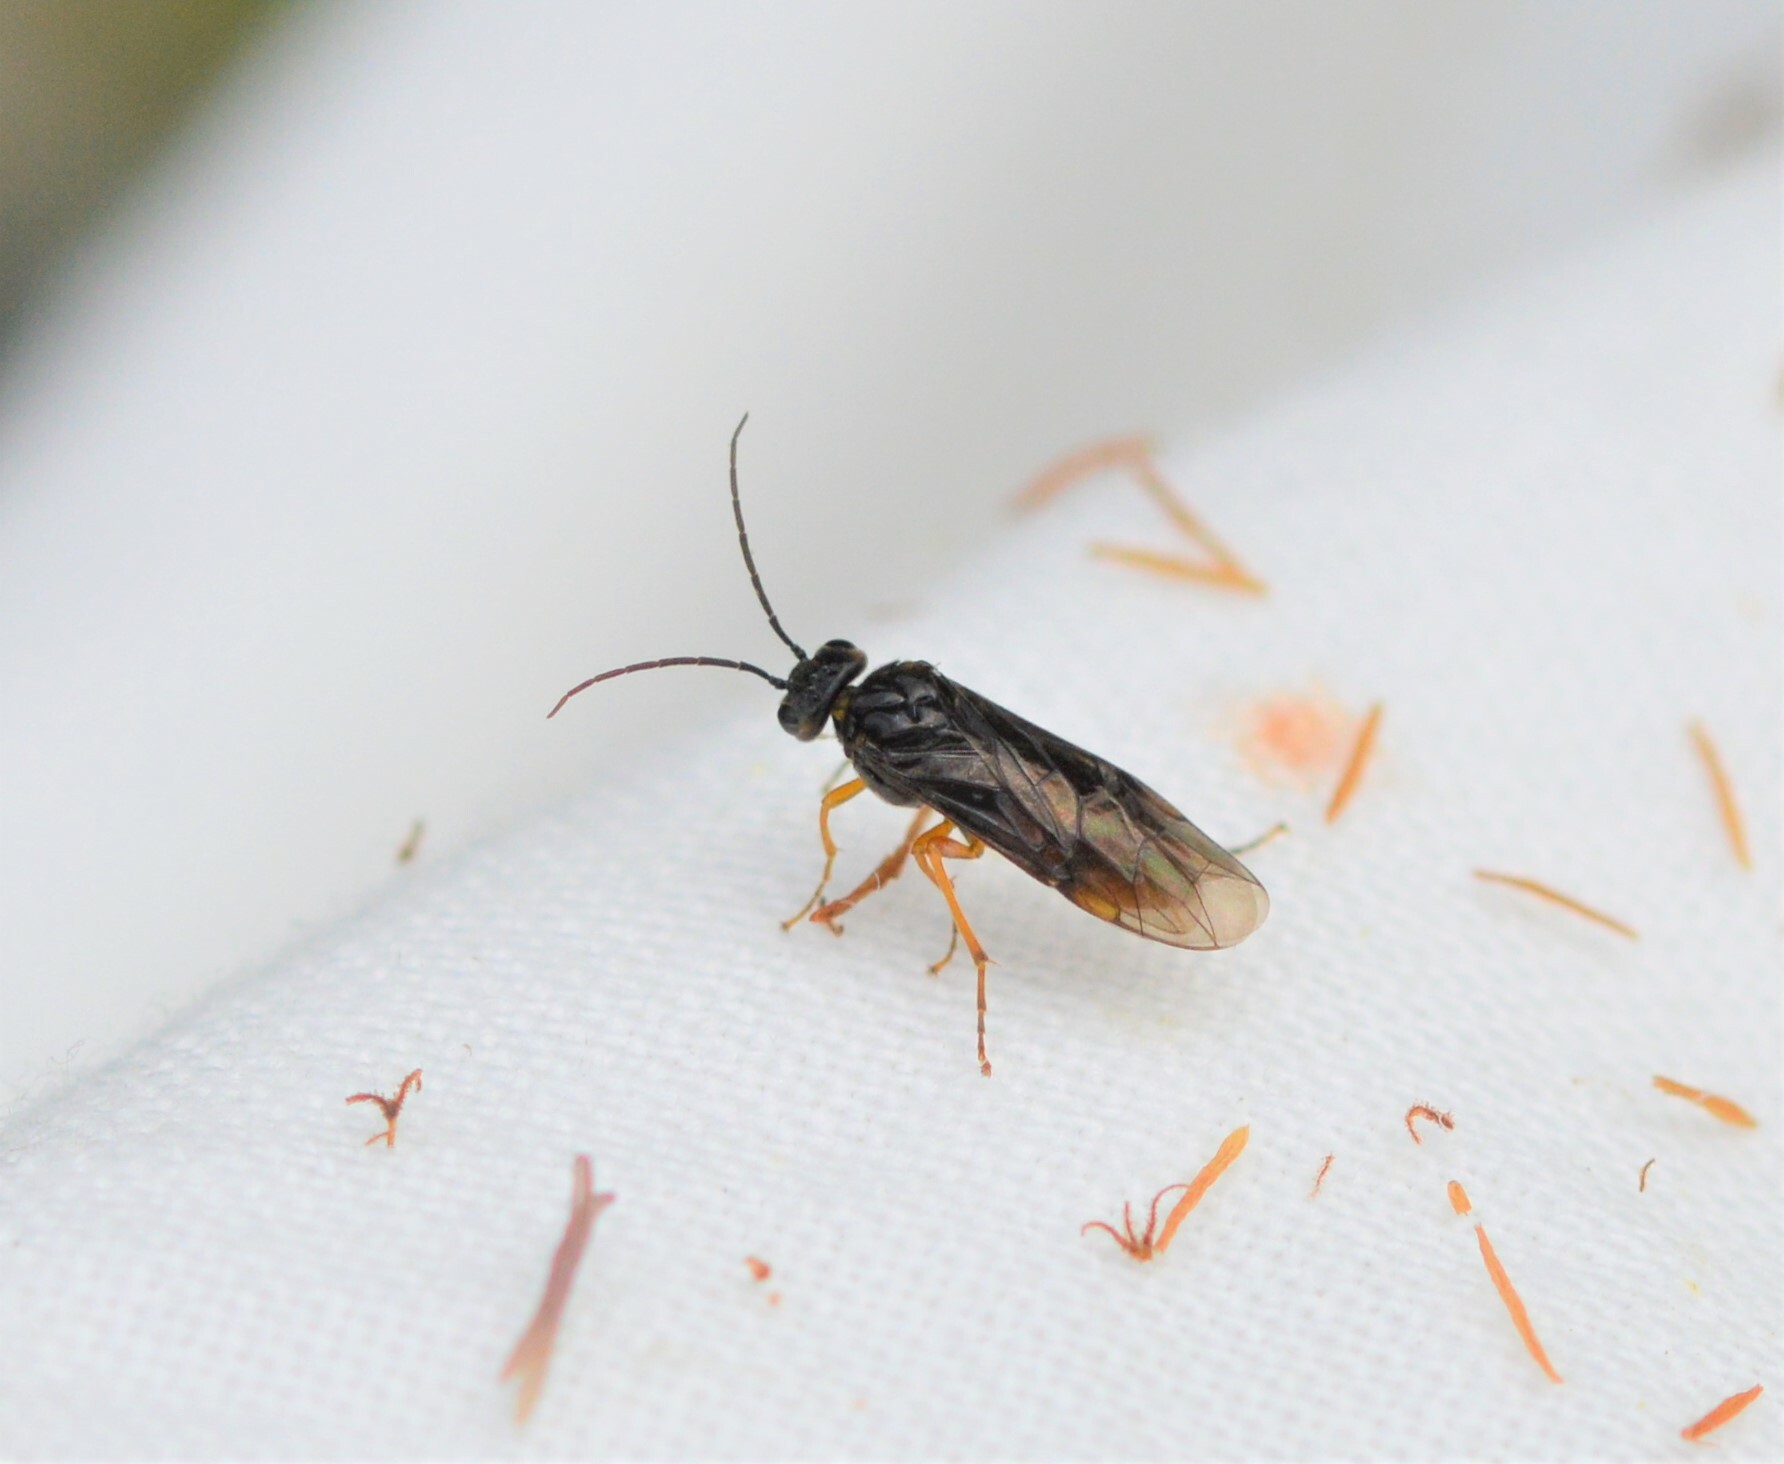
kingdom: Animalia
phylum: Arthropoda
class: Insecta
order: Hymenoptera
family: Tenthredinidae
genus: Nematinus
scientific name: Nematinus fuscipennis
